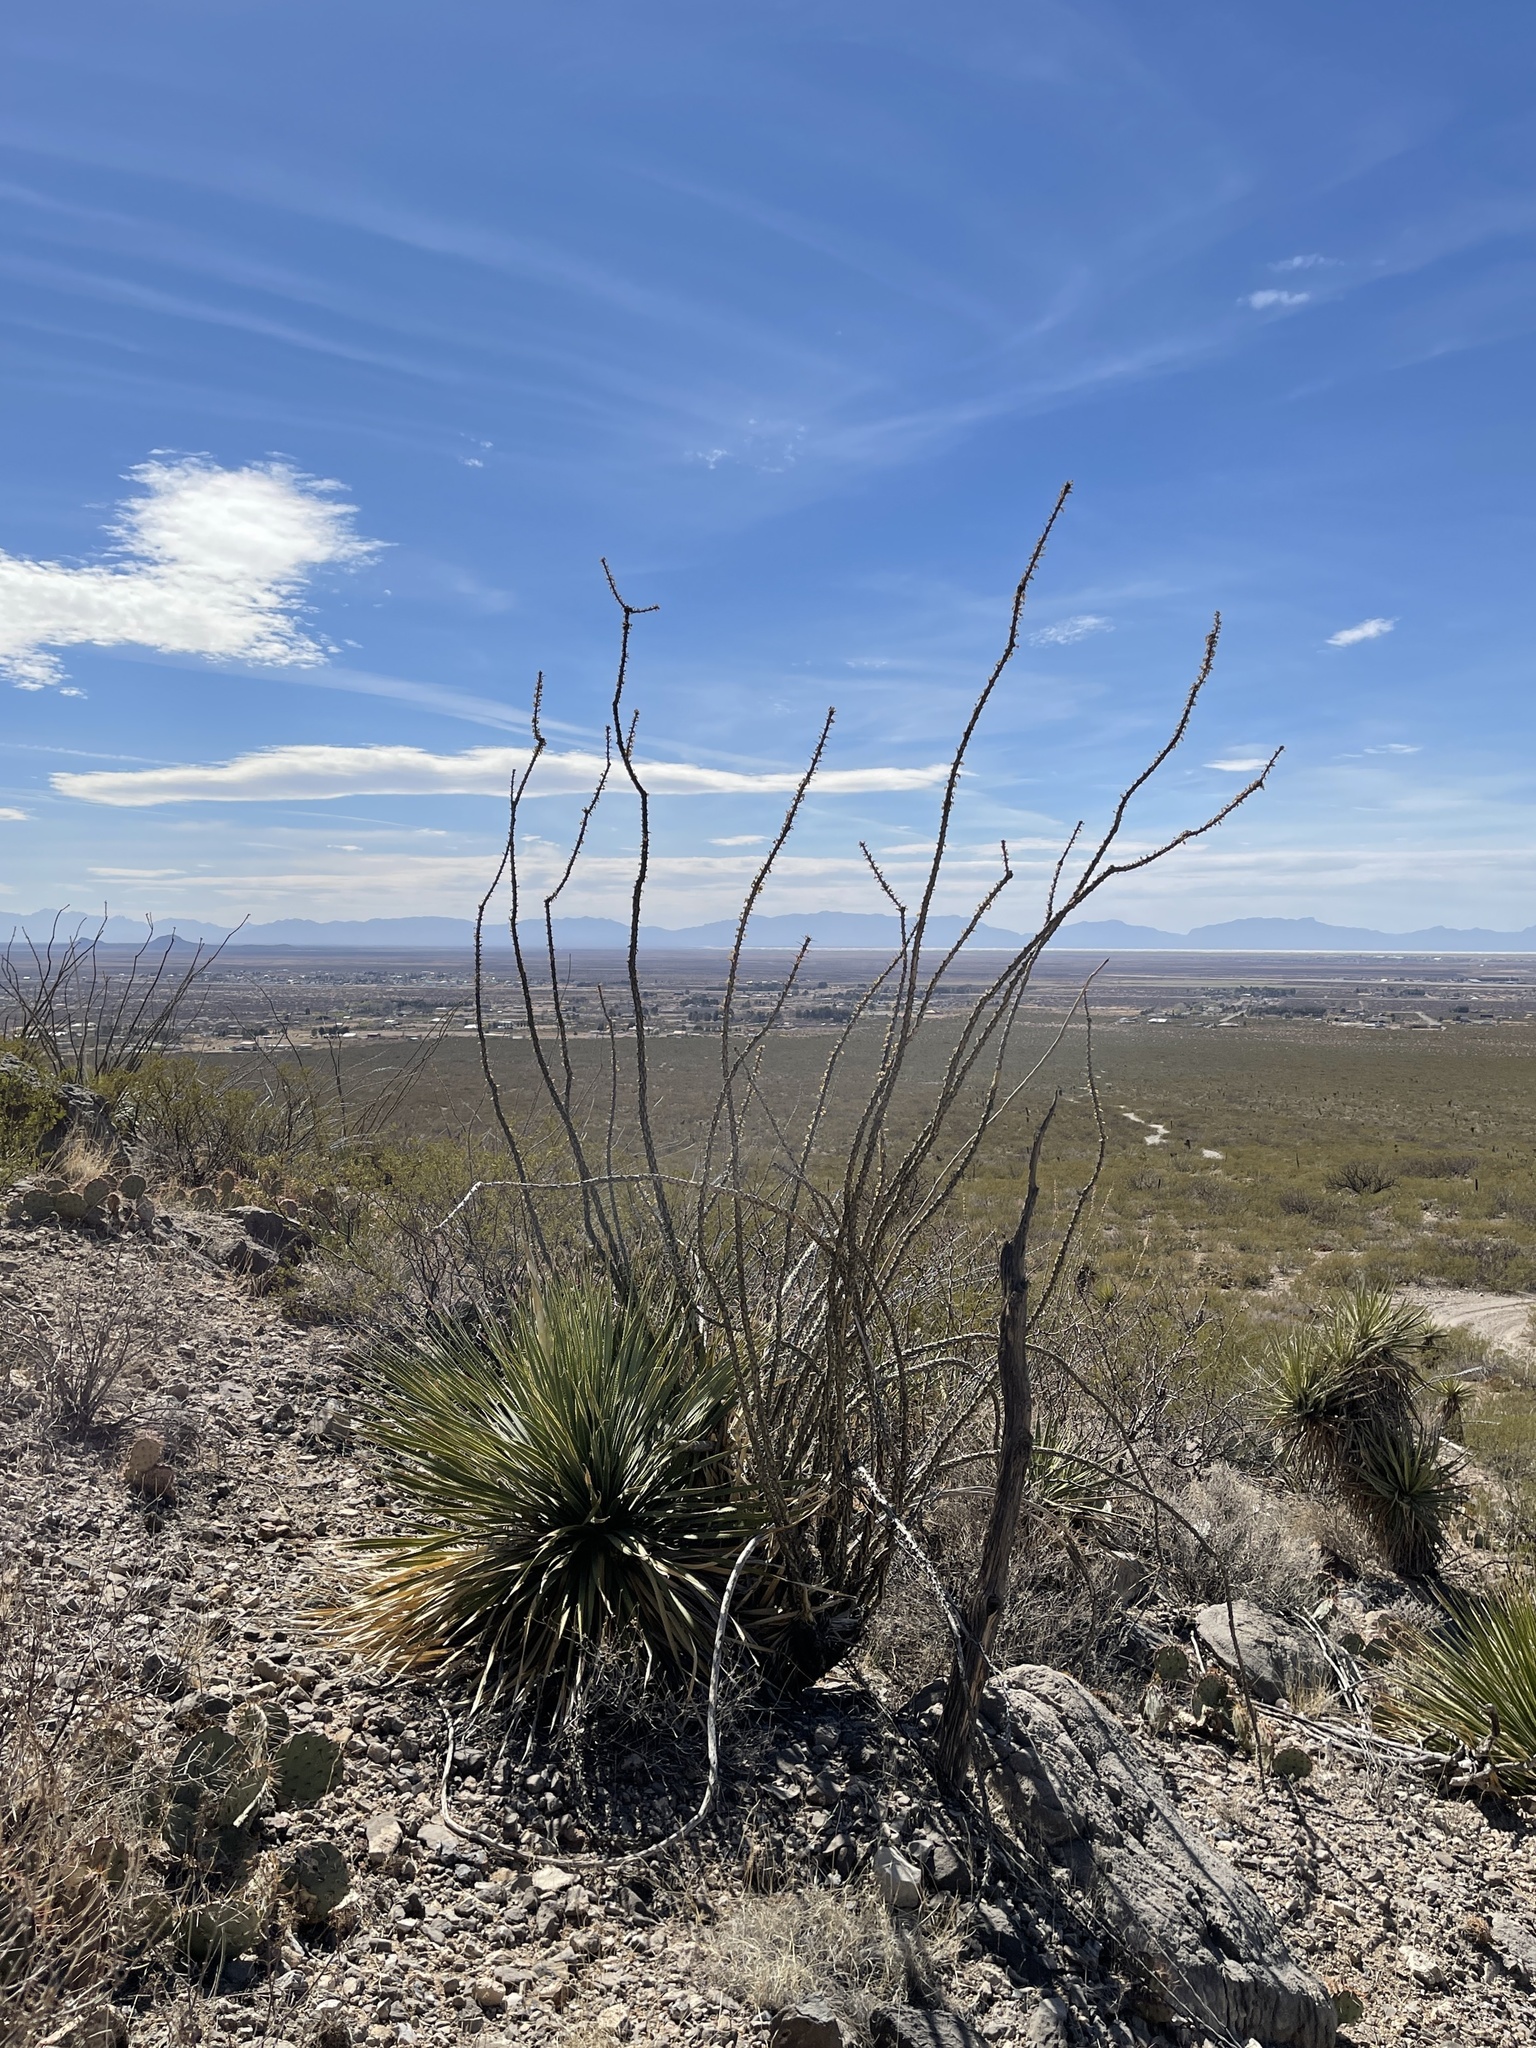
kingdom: Plantae
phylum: Tracheophyta
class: Magnoliopsida
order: Ericales
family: Fouquieriaceae
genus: Fouquieria
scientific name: Fouquieria splendens
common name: Vine-cactus
